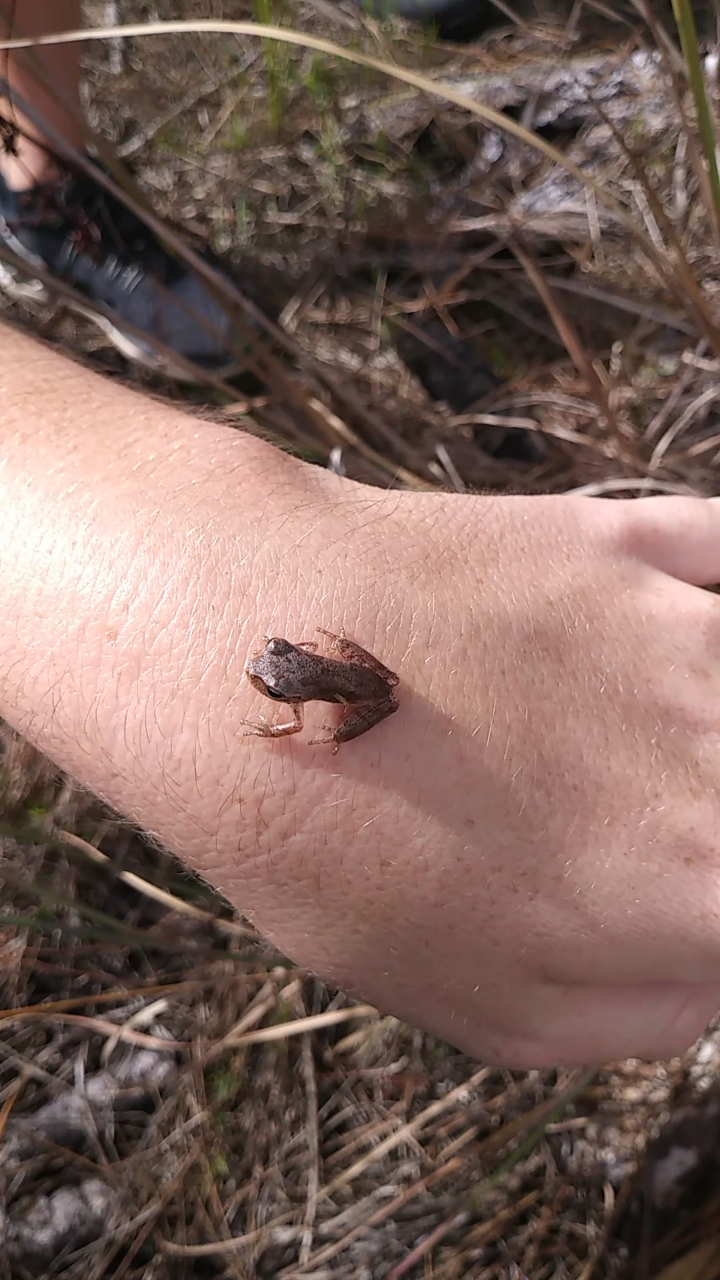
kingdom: Animalia
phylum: Chordata
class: Amphibia
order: Anura
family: Hylidae
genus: Hyla
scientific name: Hyla femoralis
